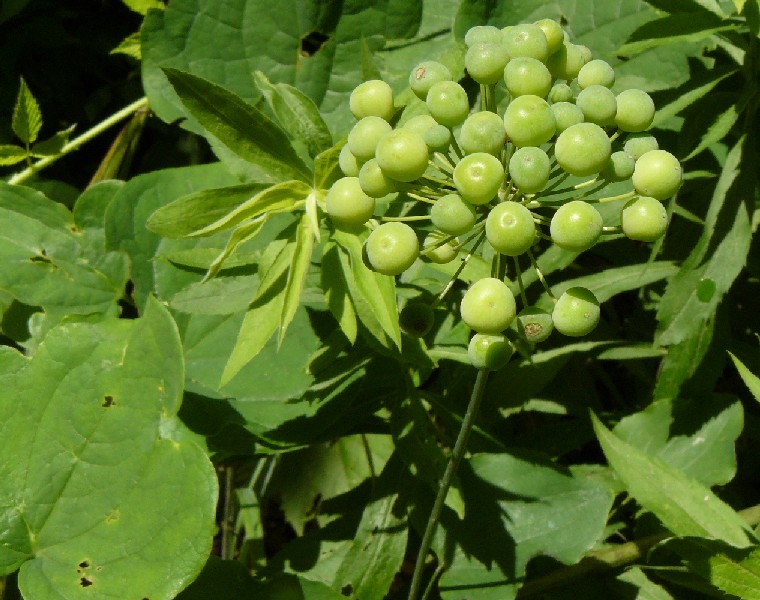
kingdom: Plantae
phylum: Tracheophyta
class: Liliopsida
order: Liliales
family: Smilacaceae
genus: Smilax
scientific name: Smilax lasioneura
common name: Blue ridge carrionflower
